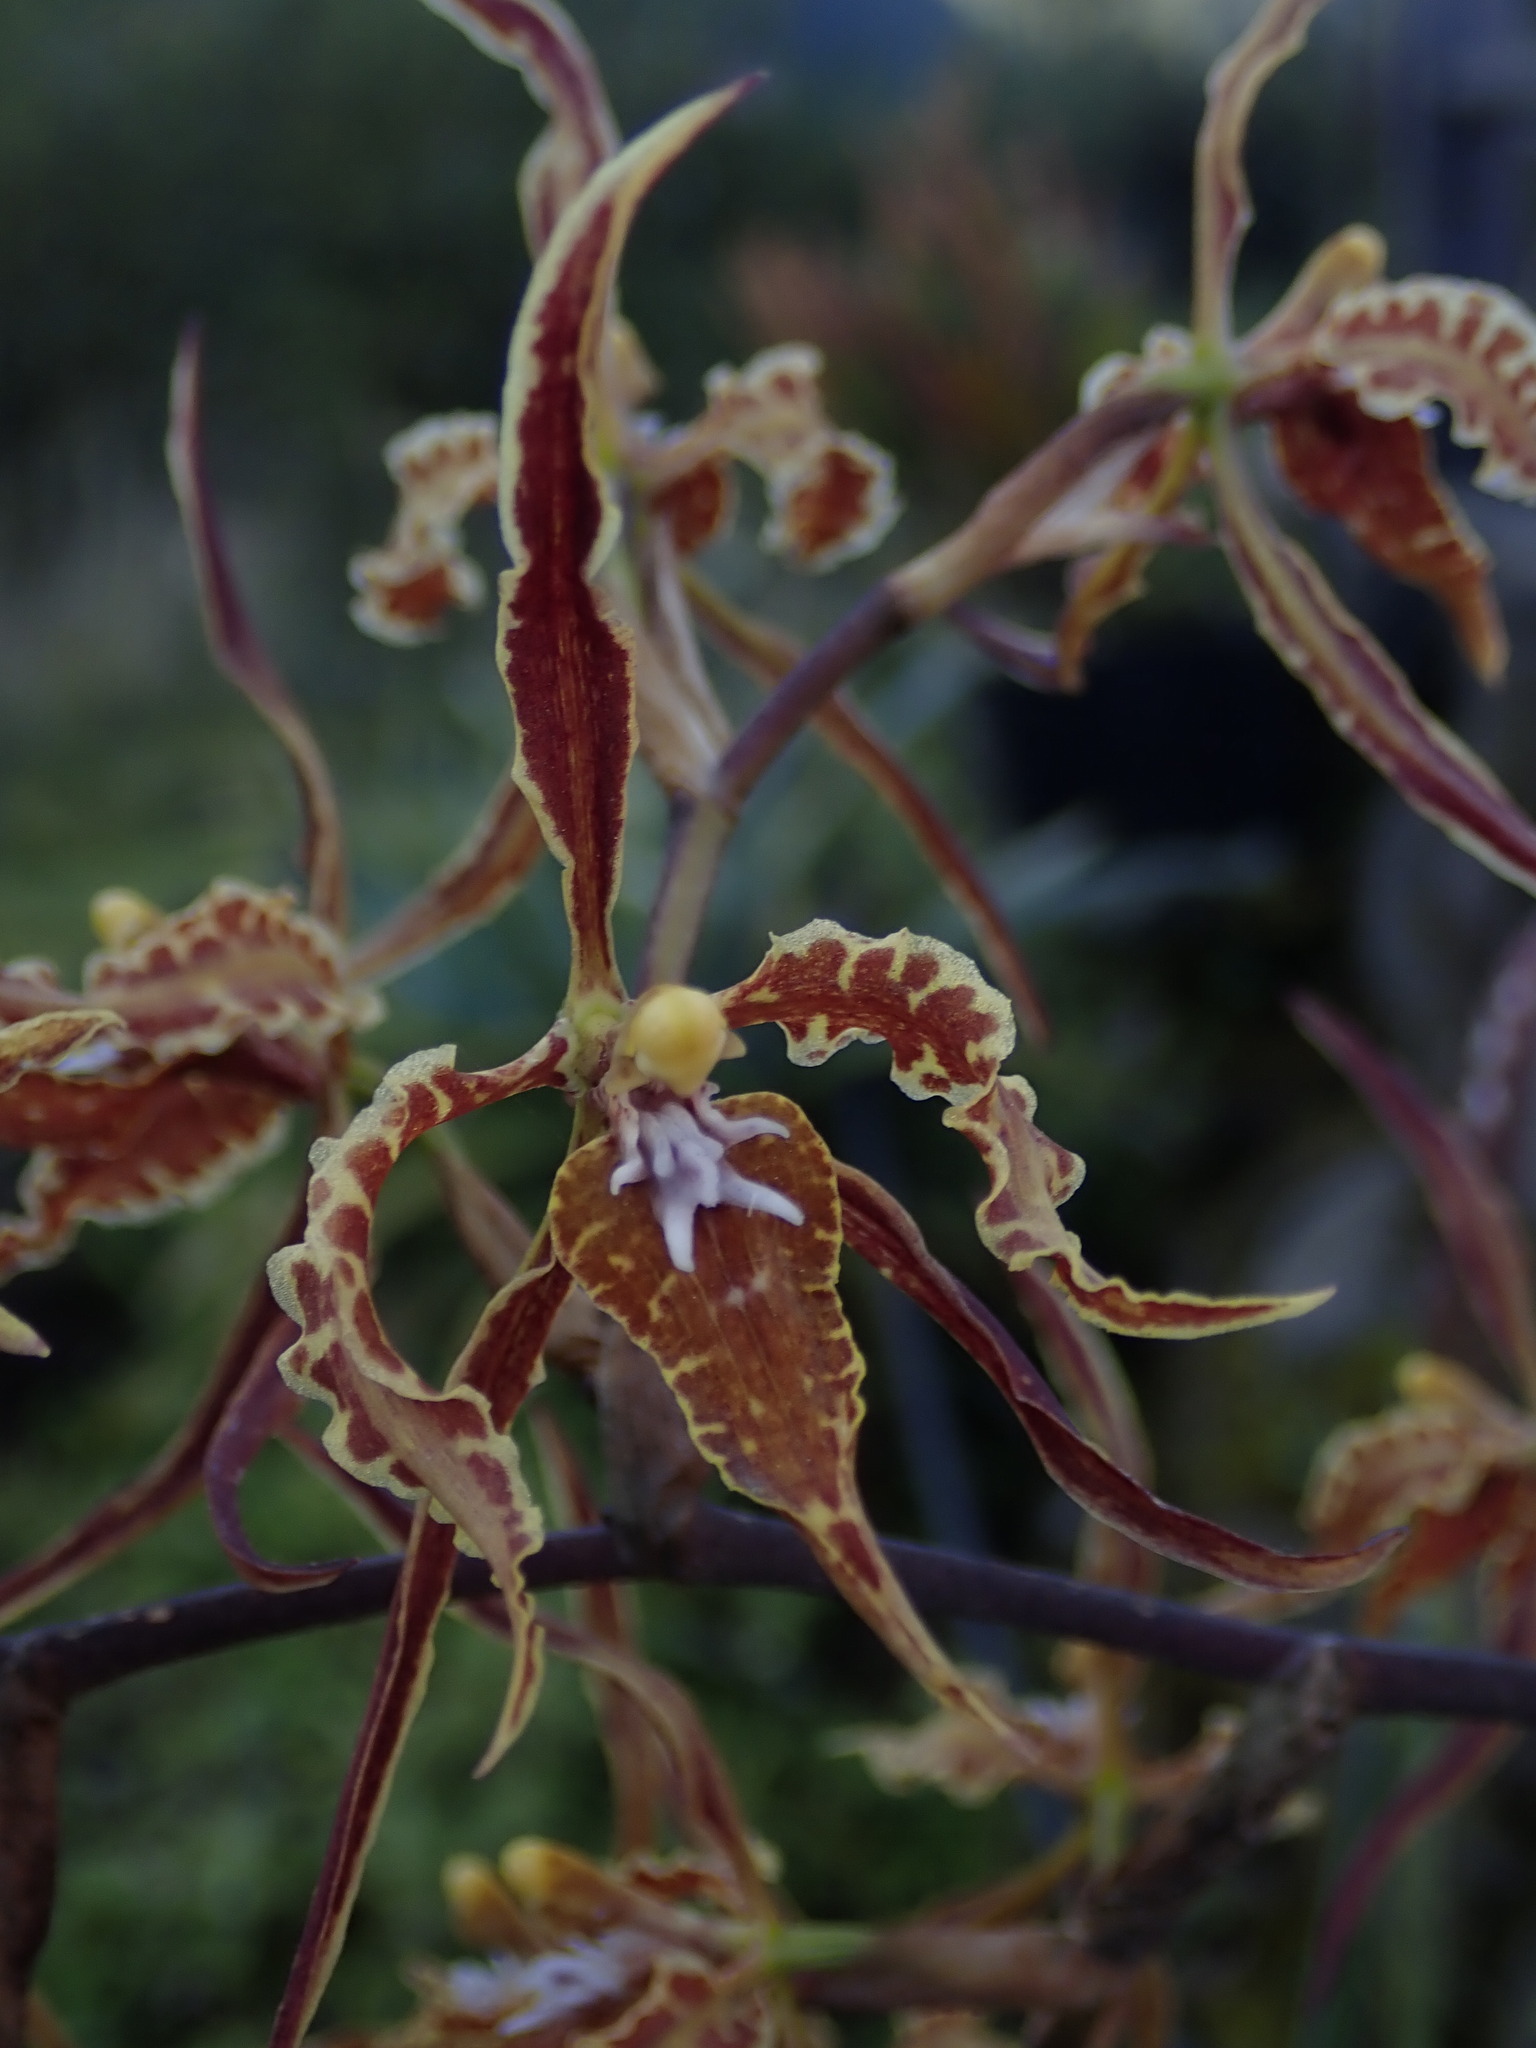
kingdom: Plantae
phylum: Tracheophyta
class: Liliopsida
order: Asparagales
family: Orchidaceae
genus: Cyrtochilum
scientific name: Cyrtochilum angustatum
